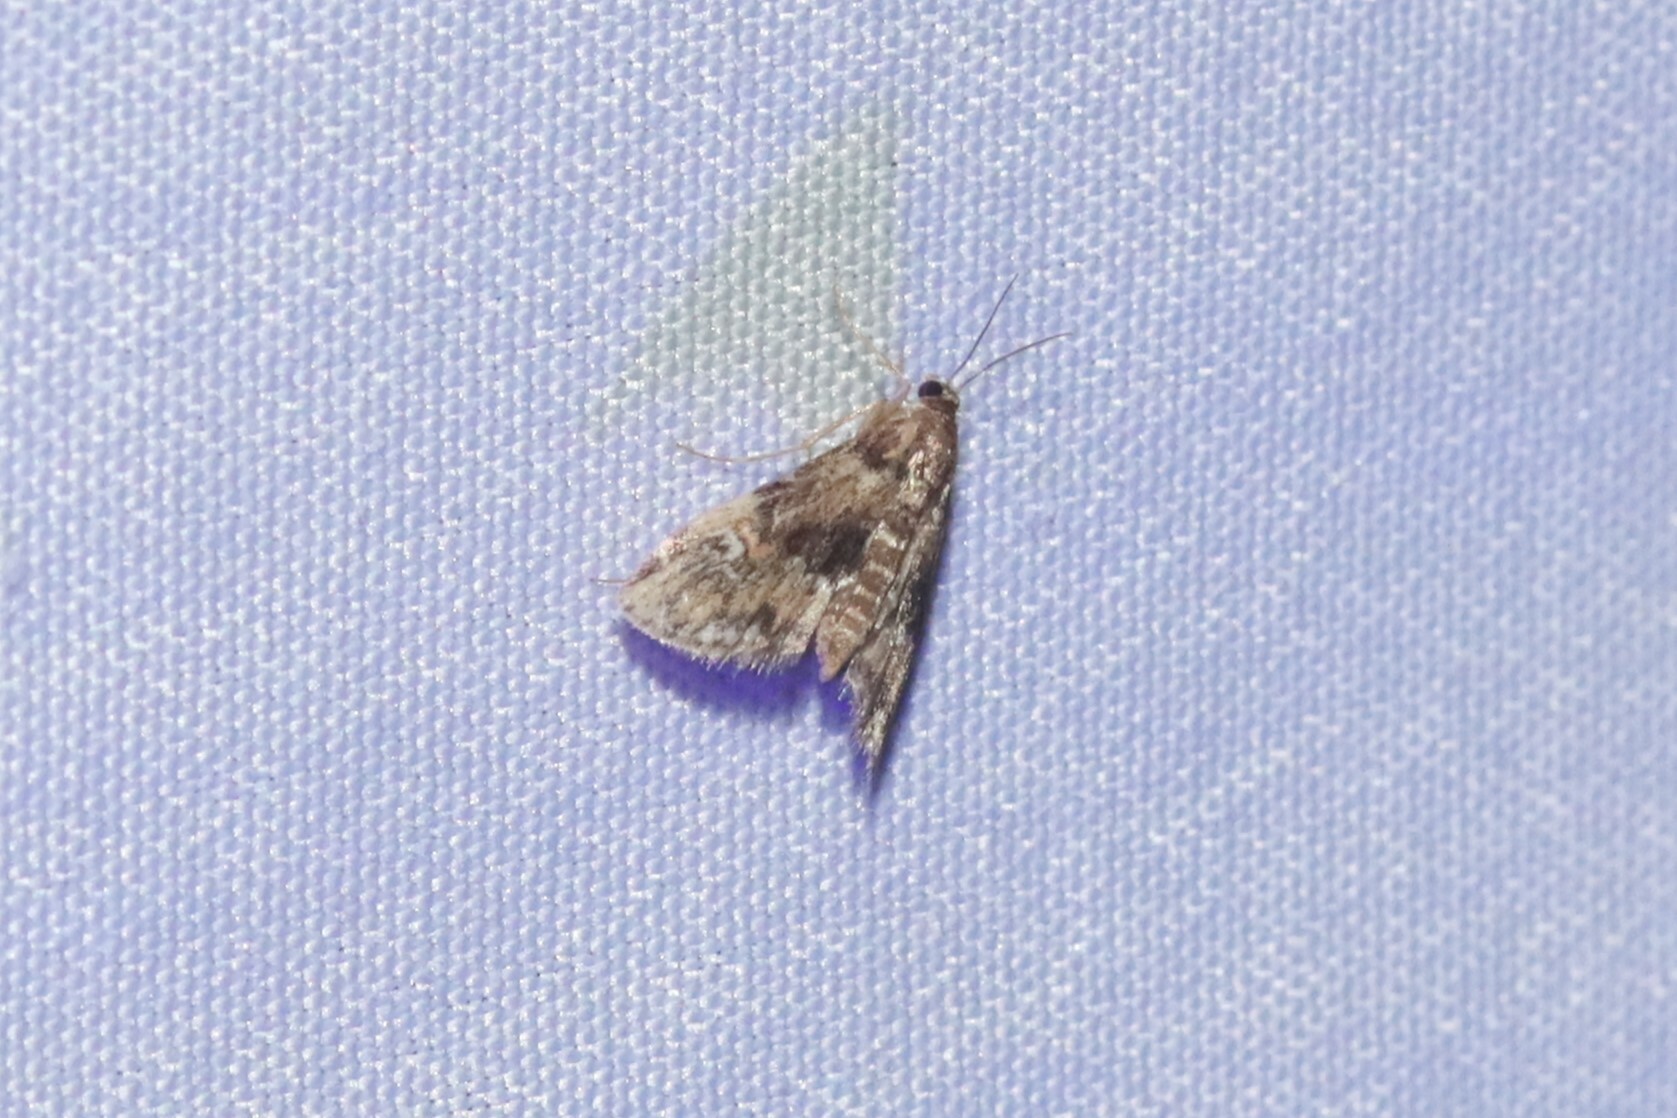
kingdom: Animalia
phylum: Arthropoda
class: Insecta
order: Lepidoptera
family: Crambidae
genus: Elophila
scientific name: Elophila obliteralis
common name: Waterlily leafcutter moth
